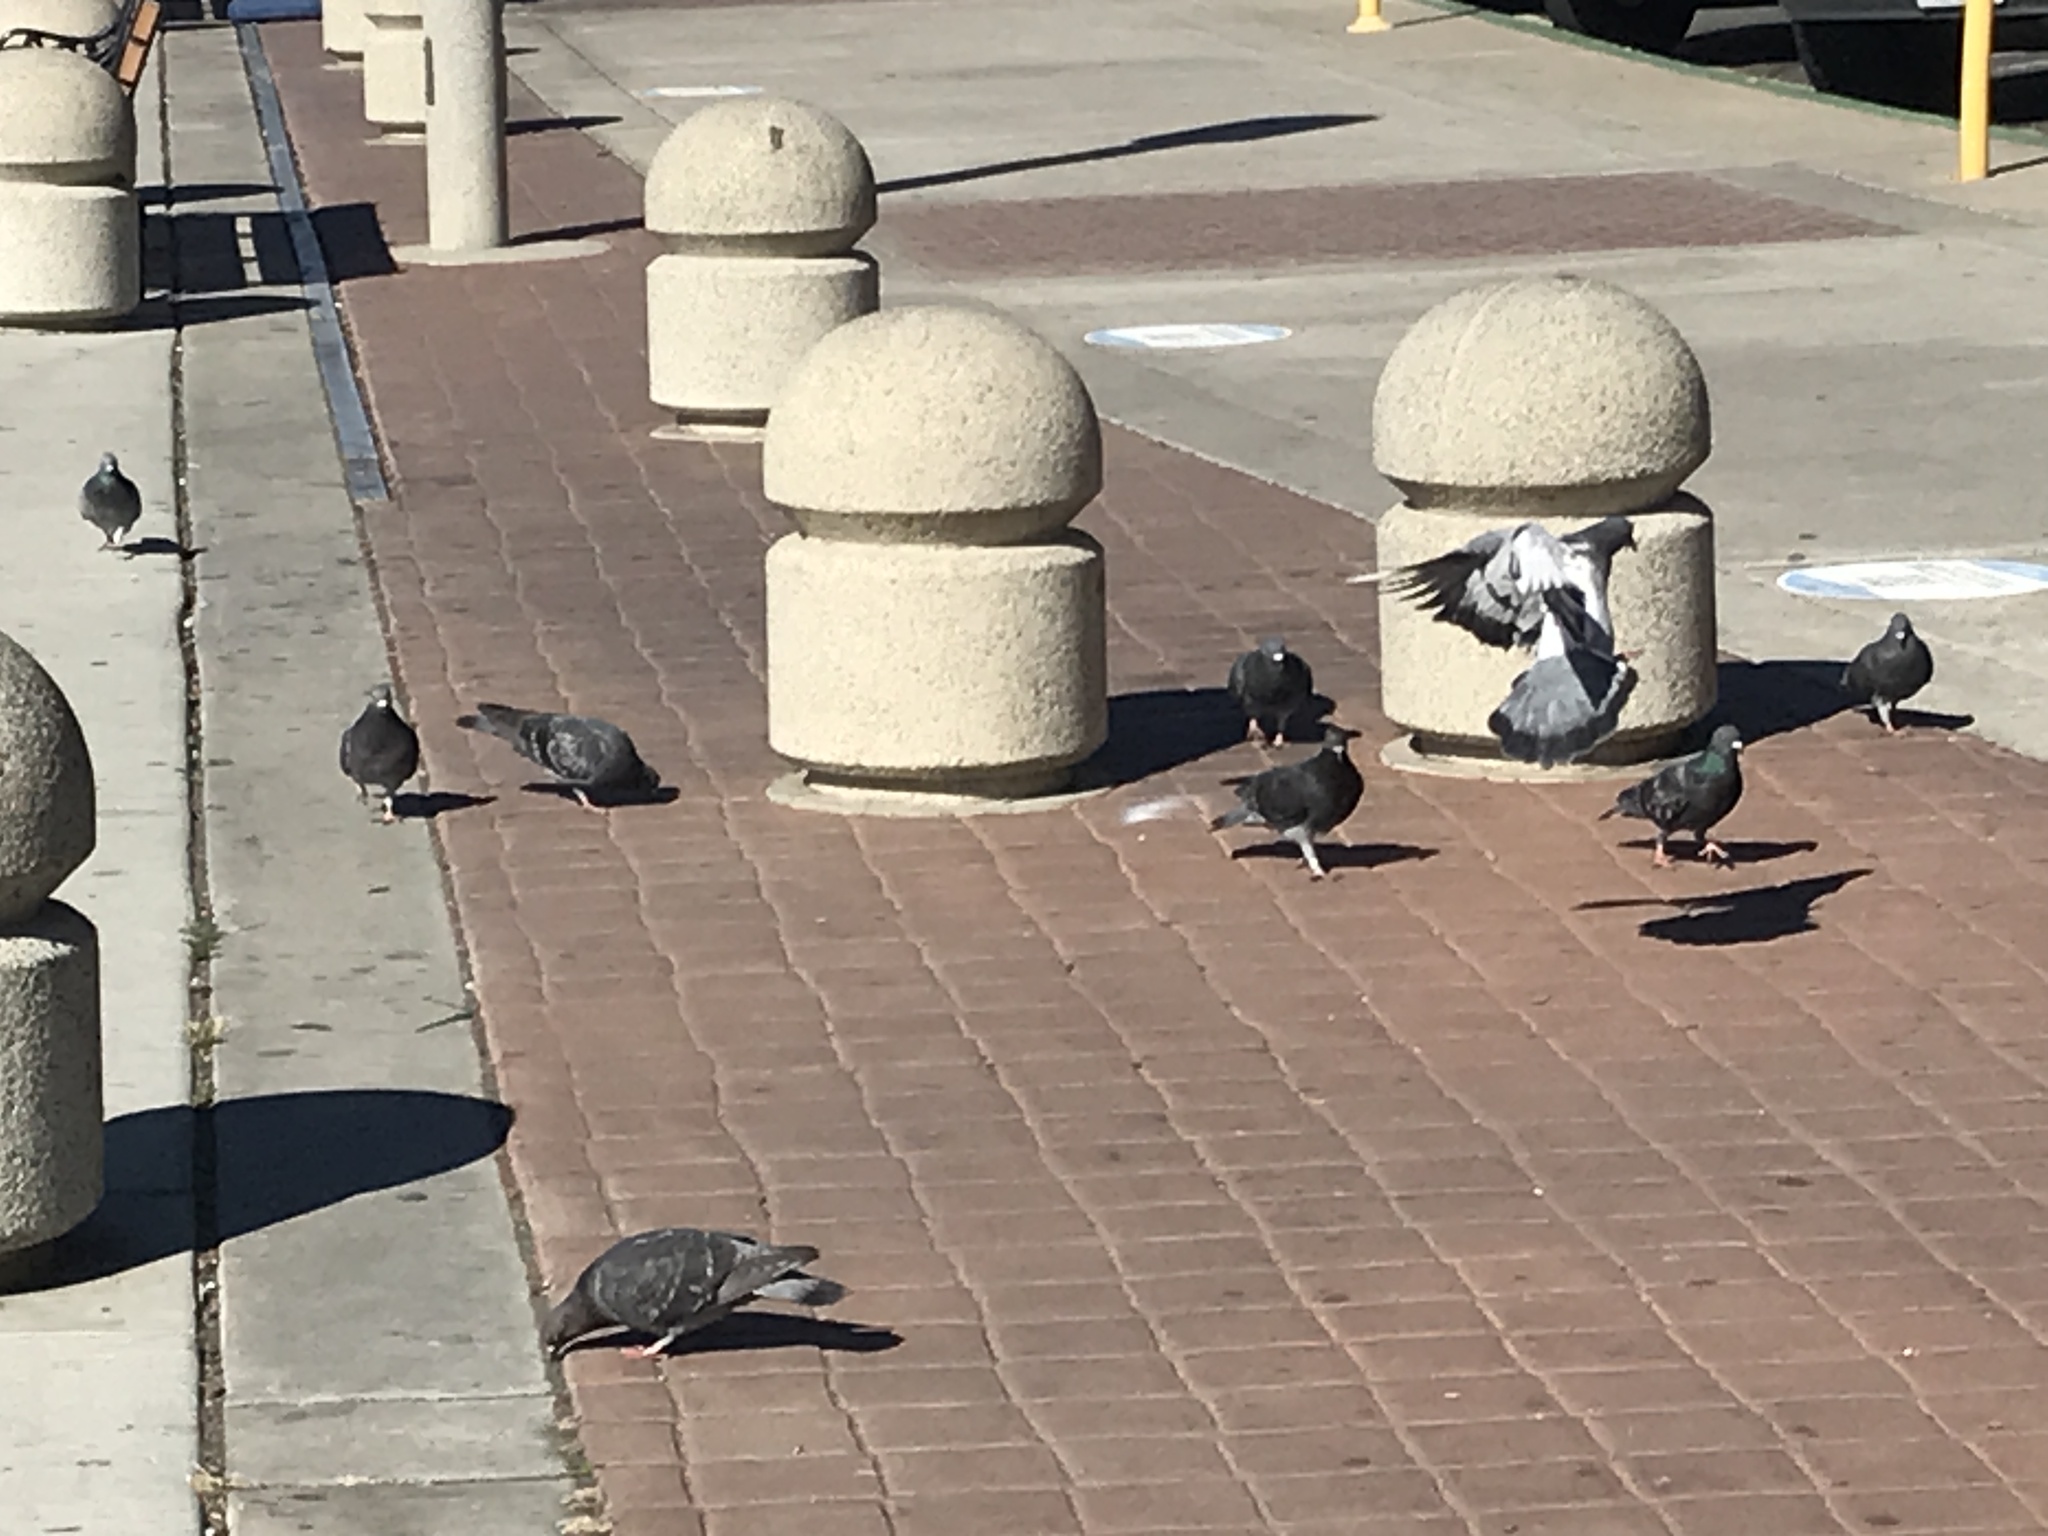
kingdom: Animalia
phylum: Chordata
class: Aves
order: Columbiformes
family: Columbidae
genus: Columba
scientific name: Columba livia
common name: Rock pigeon
